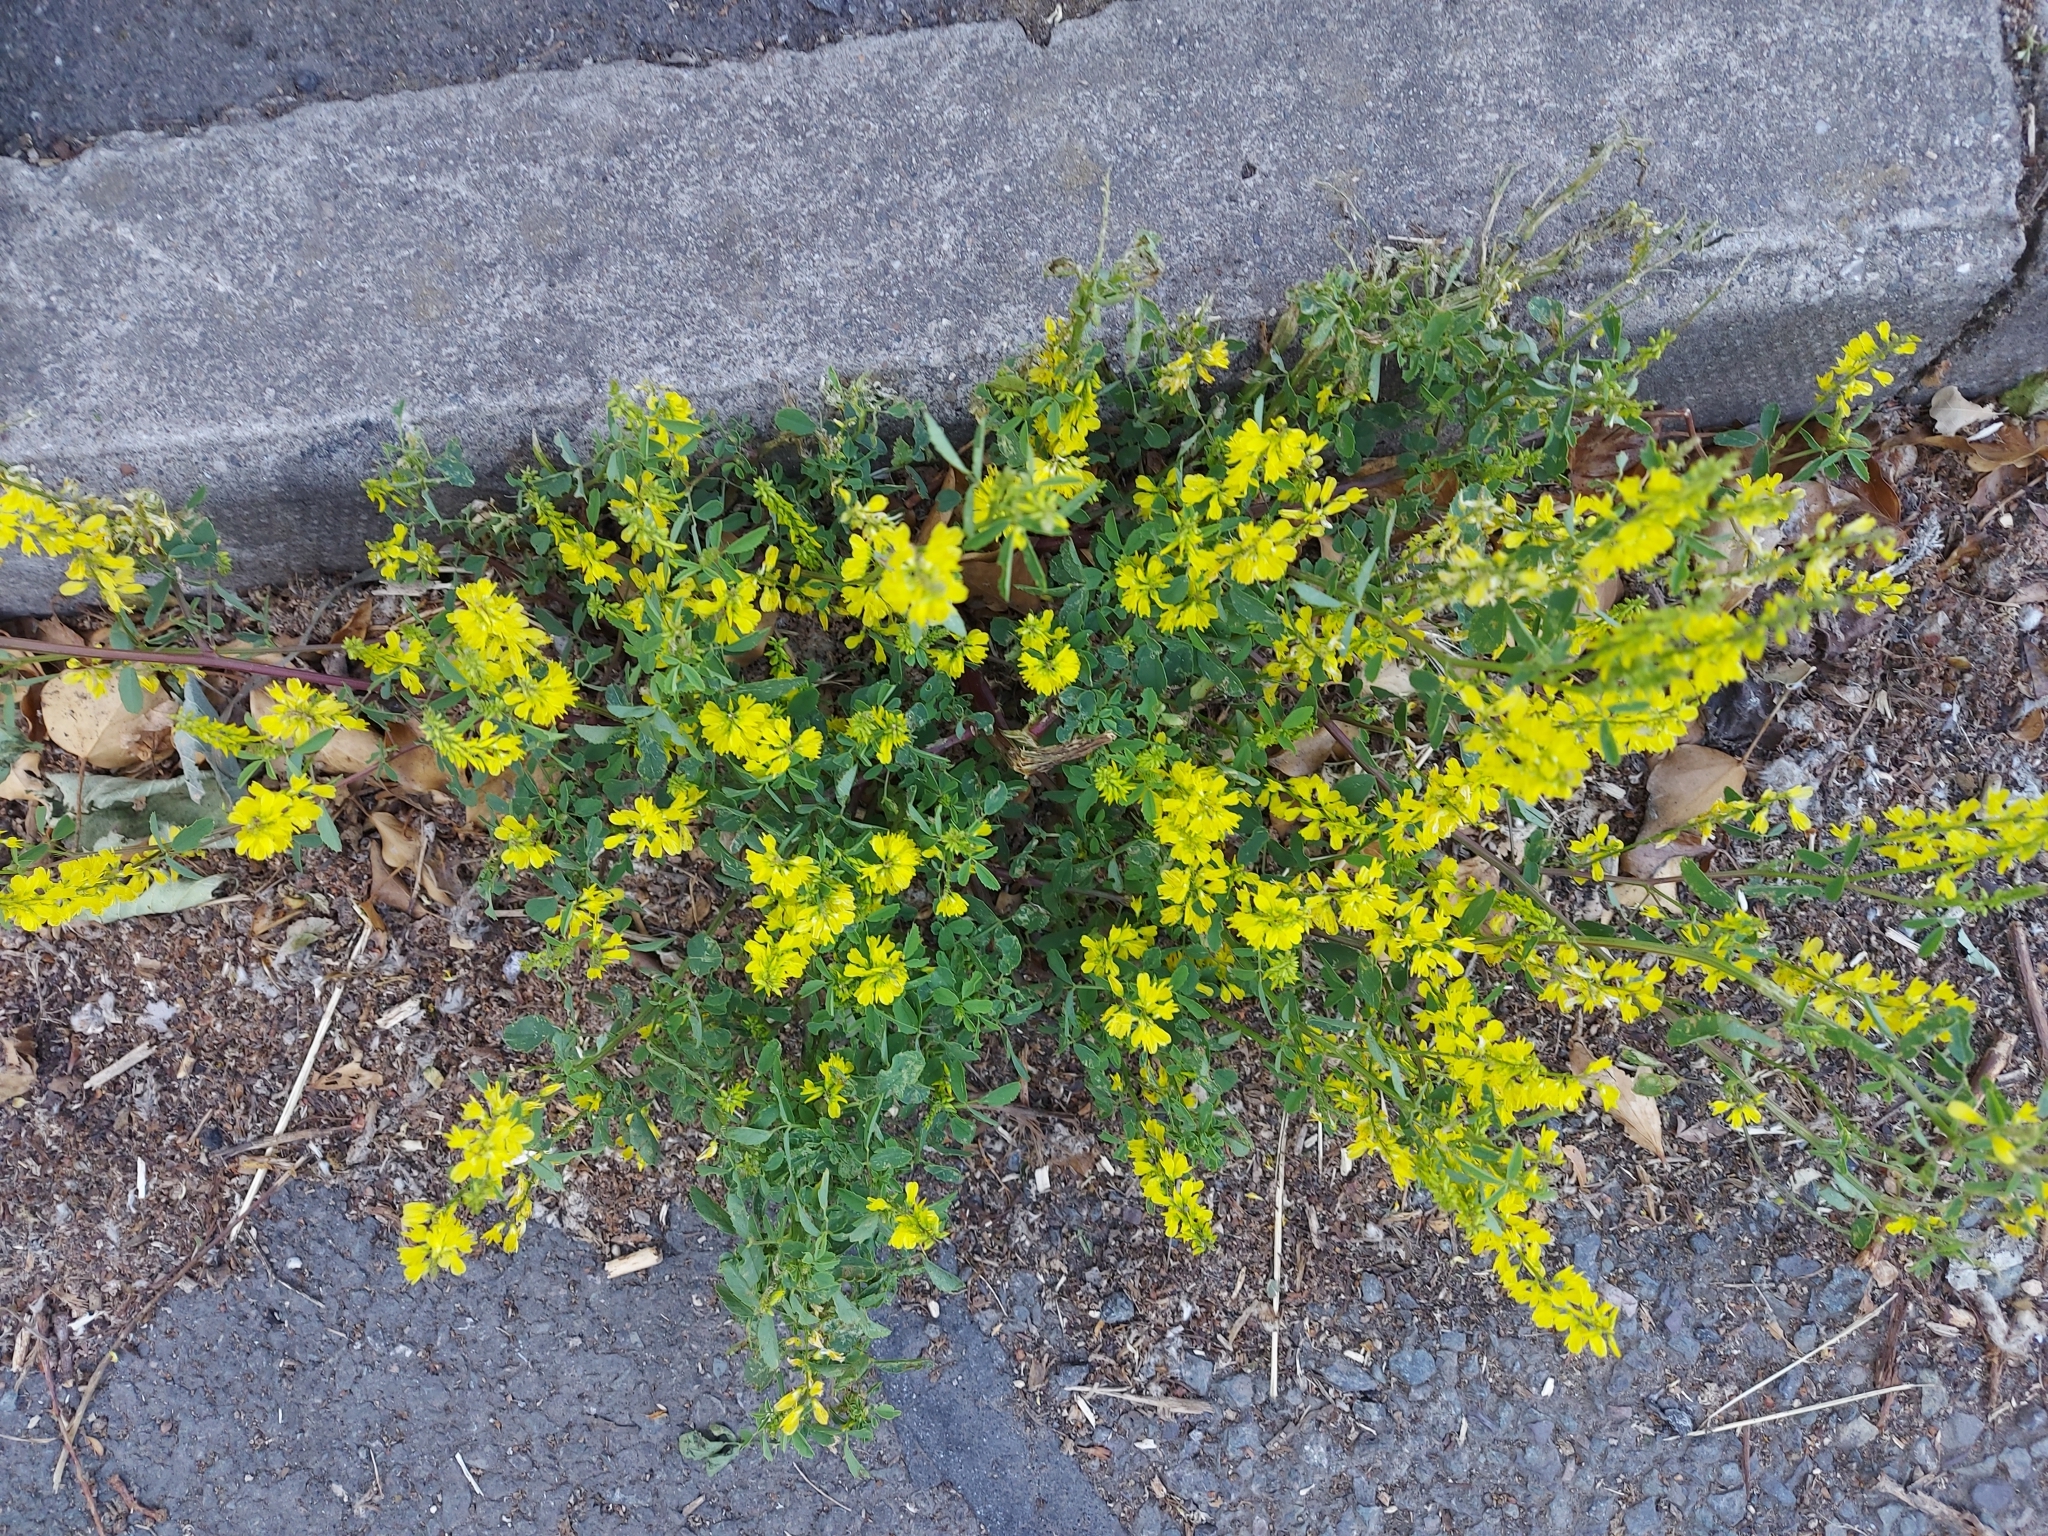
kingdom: Plantae
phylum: Tracheophyta
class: Magnoliopsida
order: Fabales
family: Fabaceae
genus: Melilotus
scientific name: Melilotus officinalis
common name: Sweetclover
